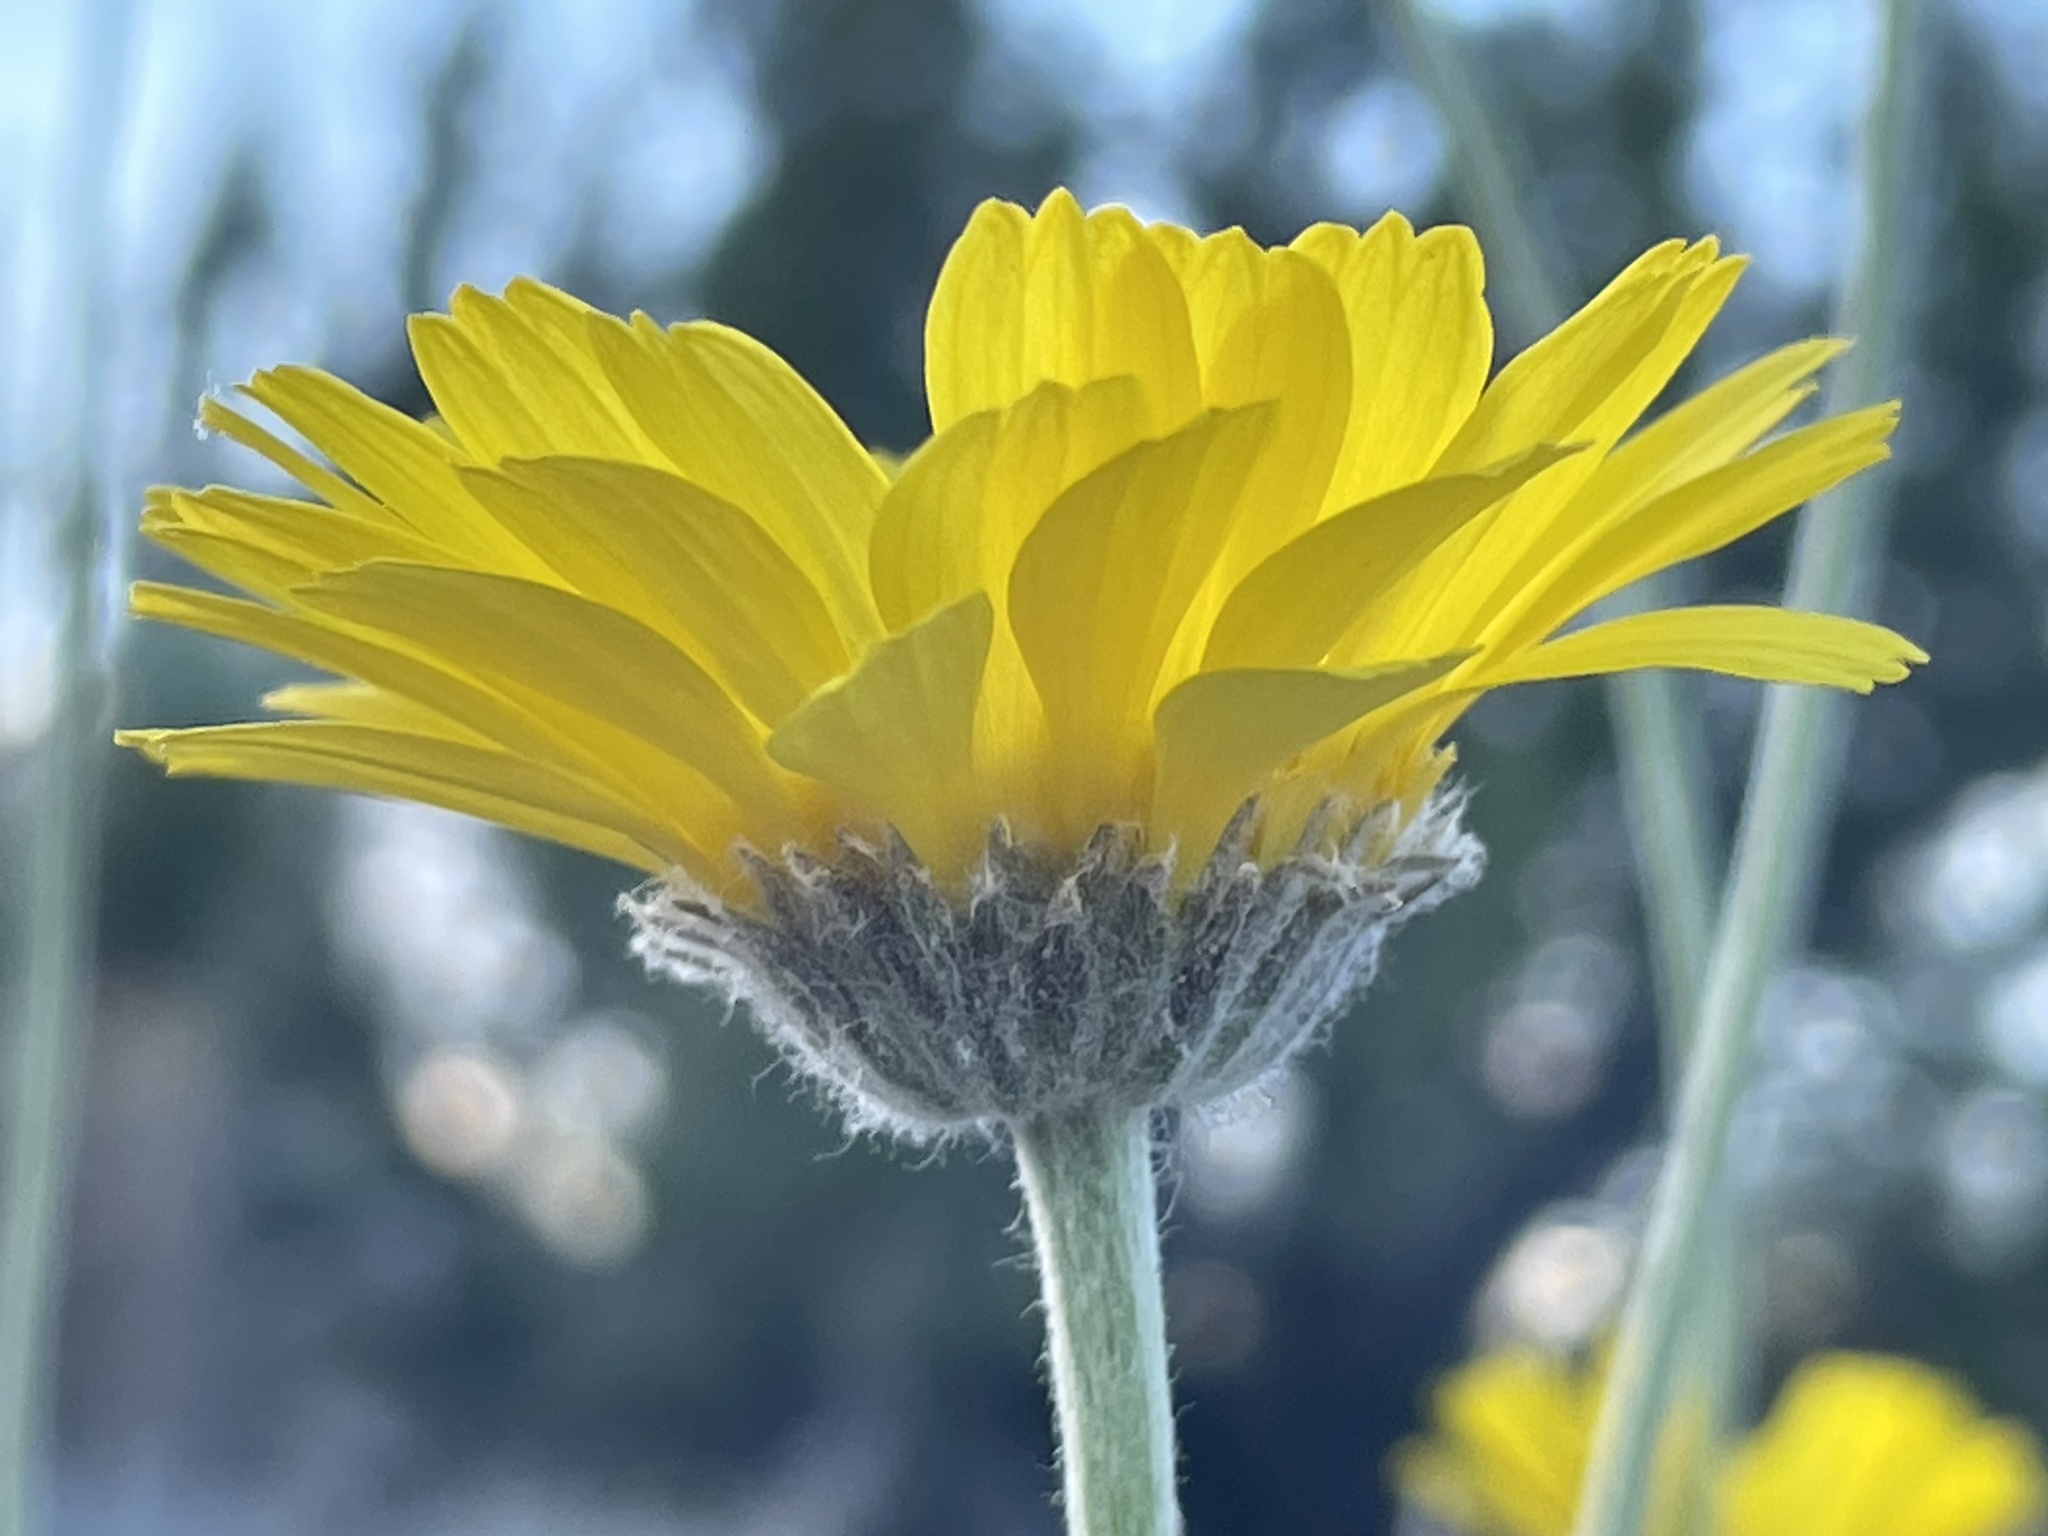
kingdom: Plantae
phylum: Tracheophyta
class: Magnoliopsida
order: Asterales
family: Asteraceae
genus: Baileya
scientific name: Baileya multiradiata
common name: Desert-marigold
